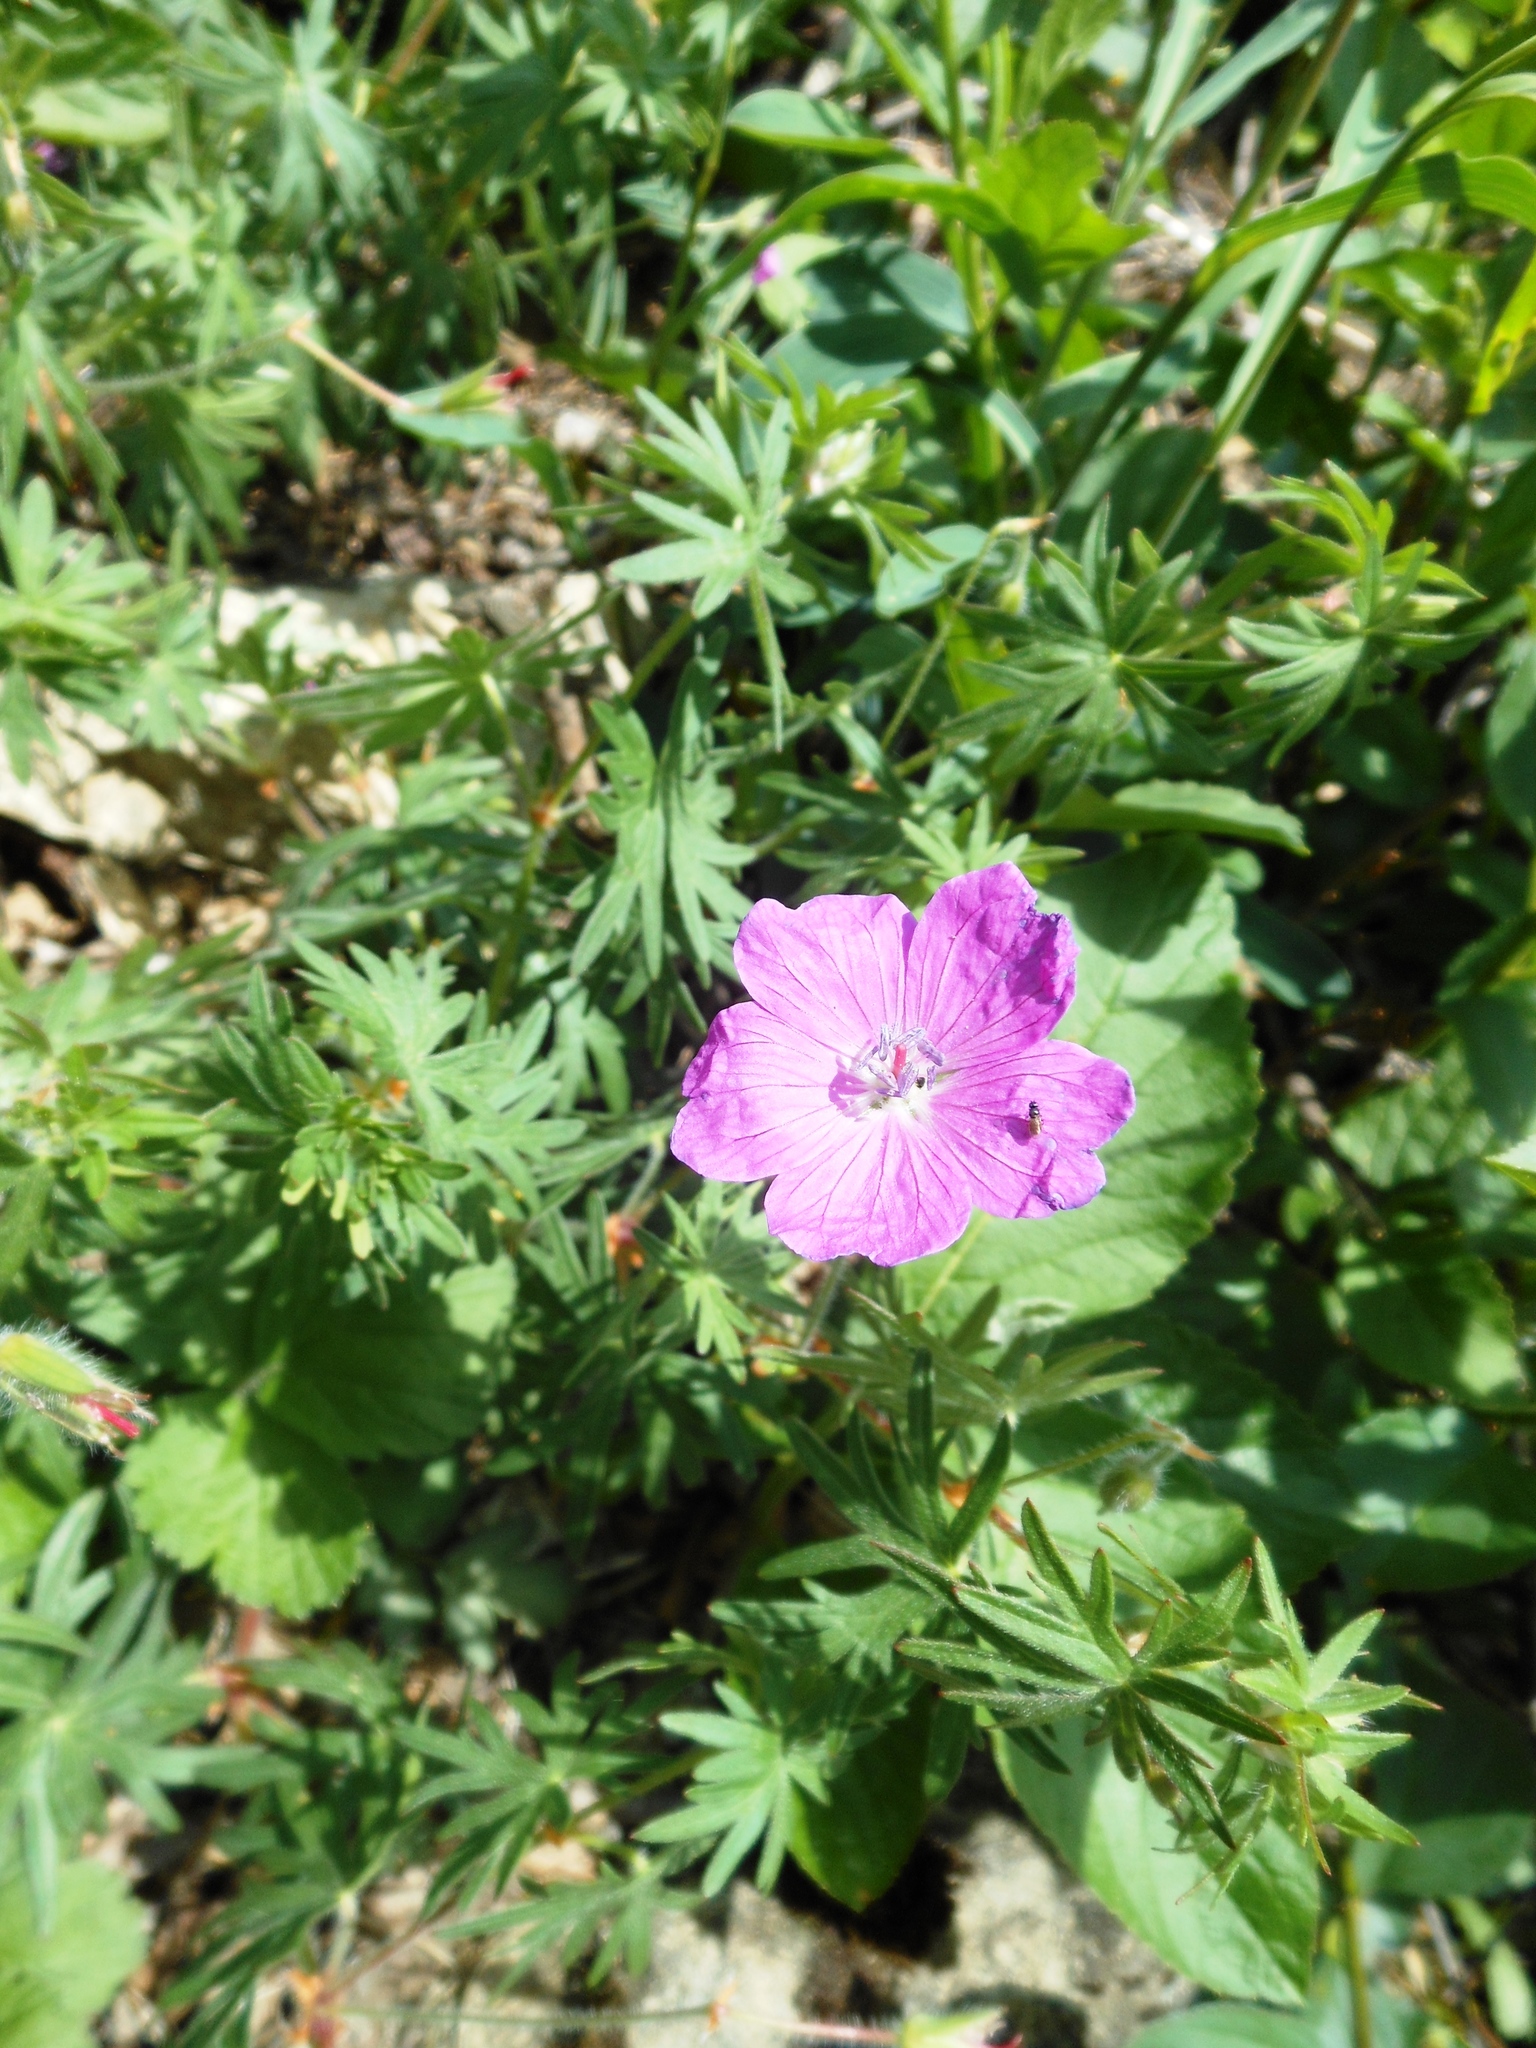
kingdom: Plantae
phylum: Tracheophyta
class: Magnoliopsida
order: Geraniales
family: Geraniaceae
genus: Geranium
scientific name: Geranium sanguineum
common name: Bloody crane's-bill
